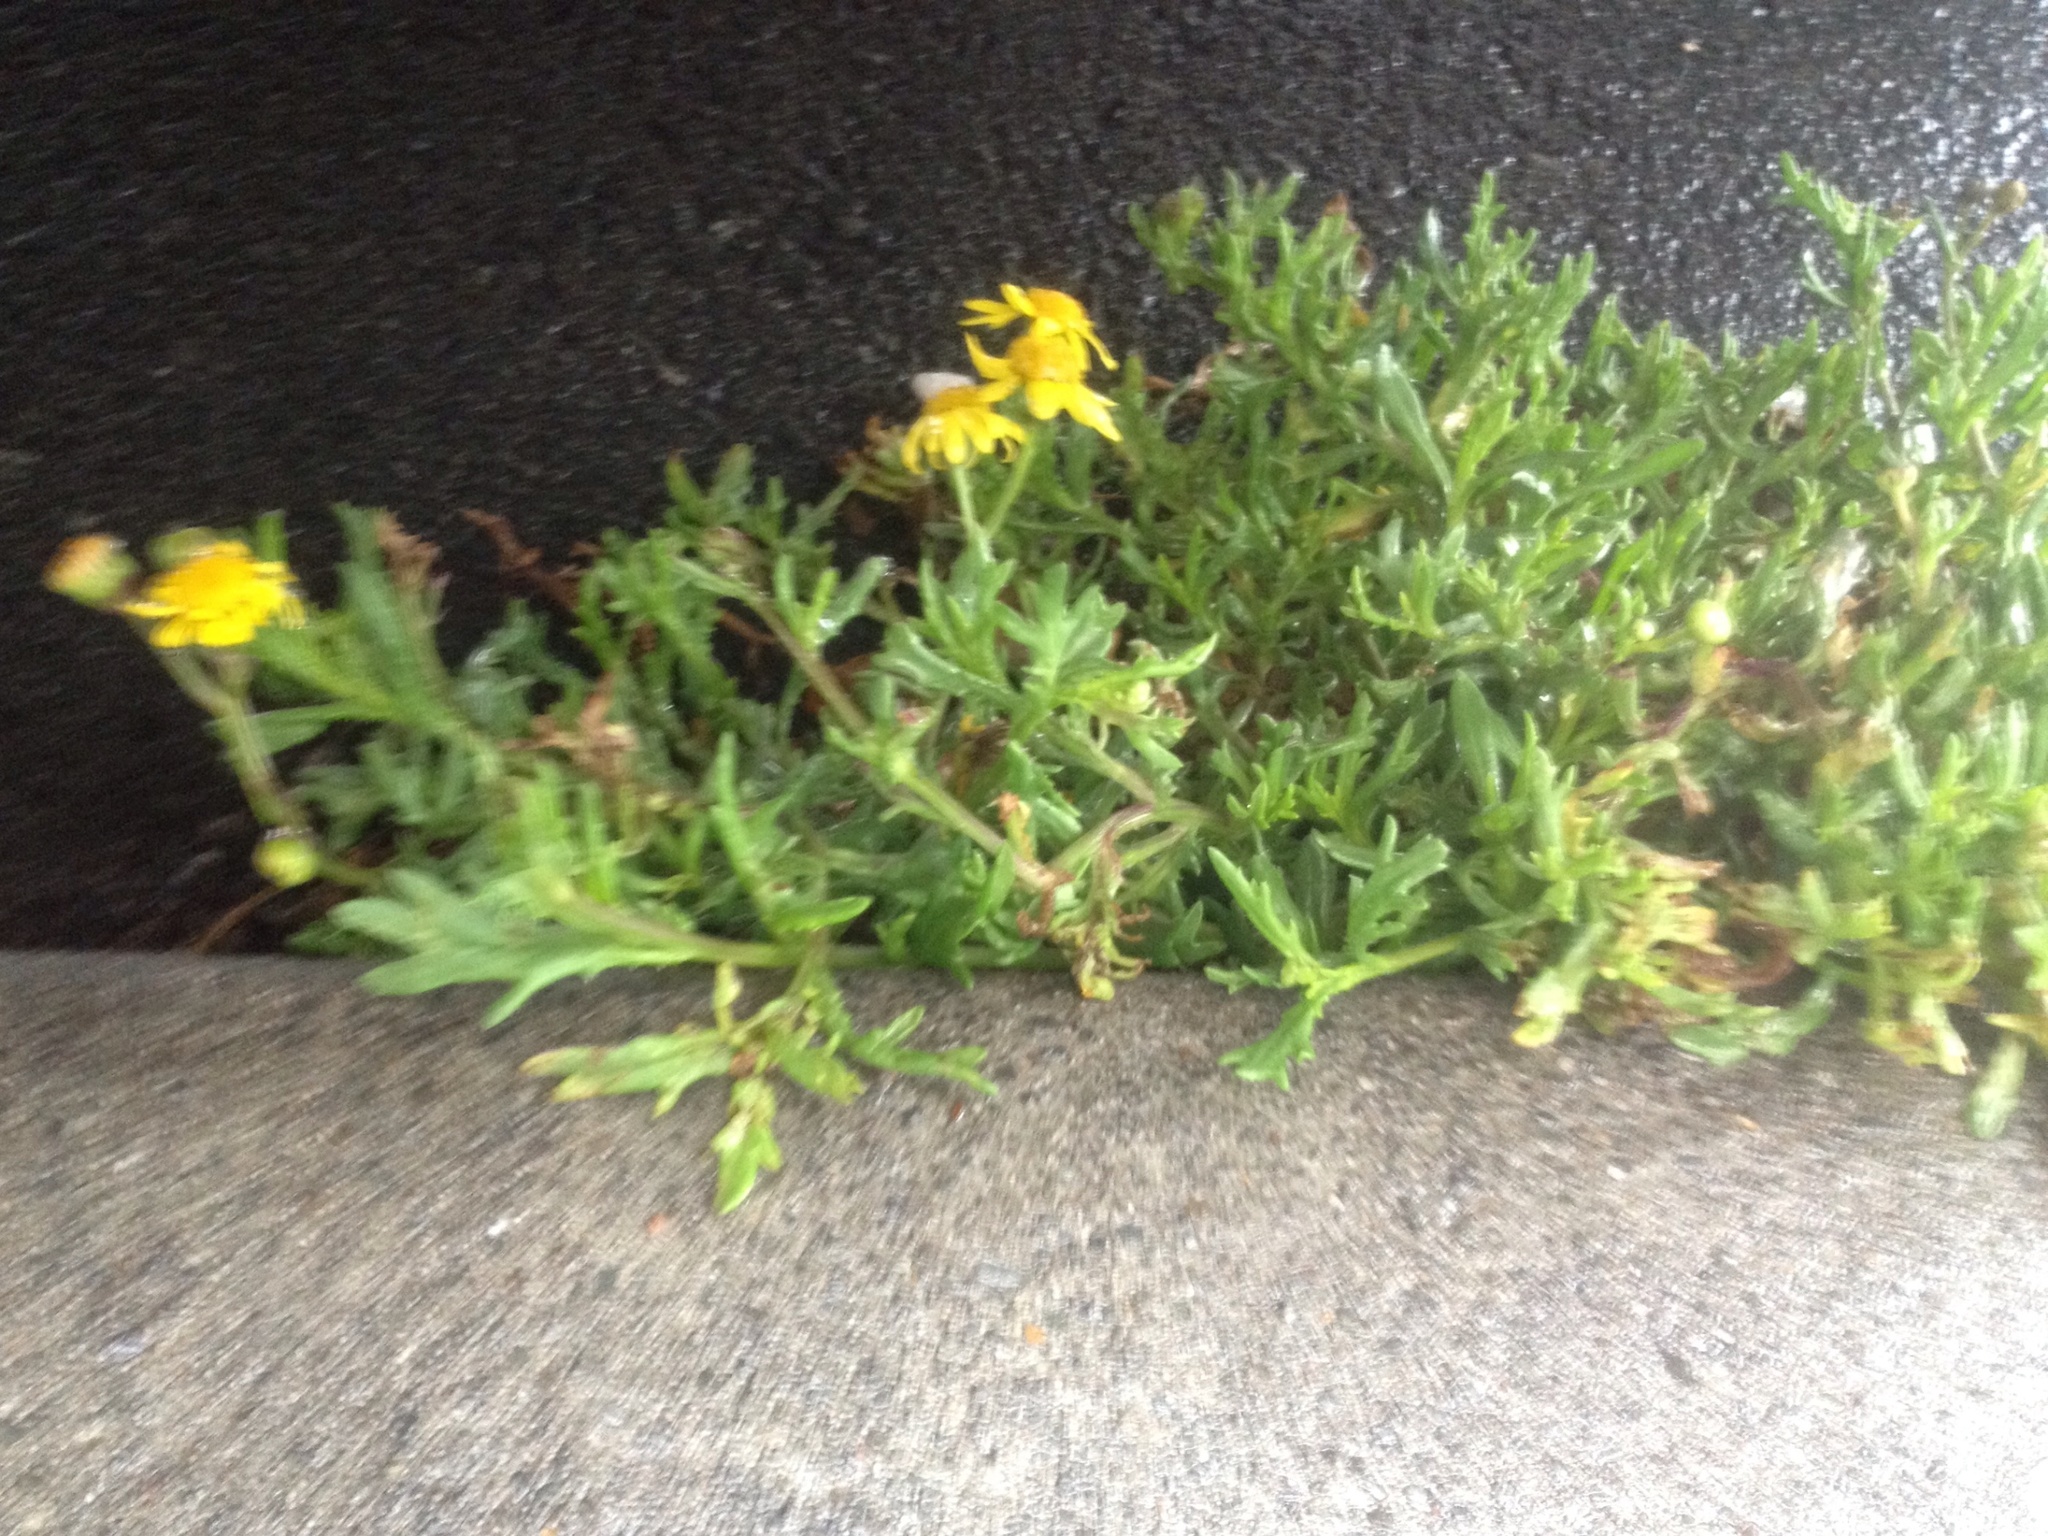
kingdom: Plantae
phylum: Tracheophyta
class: Magnoliopsida
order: Asterales
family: Asteraceae
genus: Senecio
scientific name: Senecio skirrhodon
